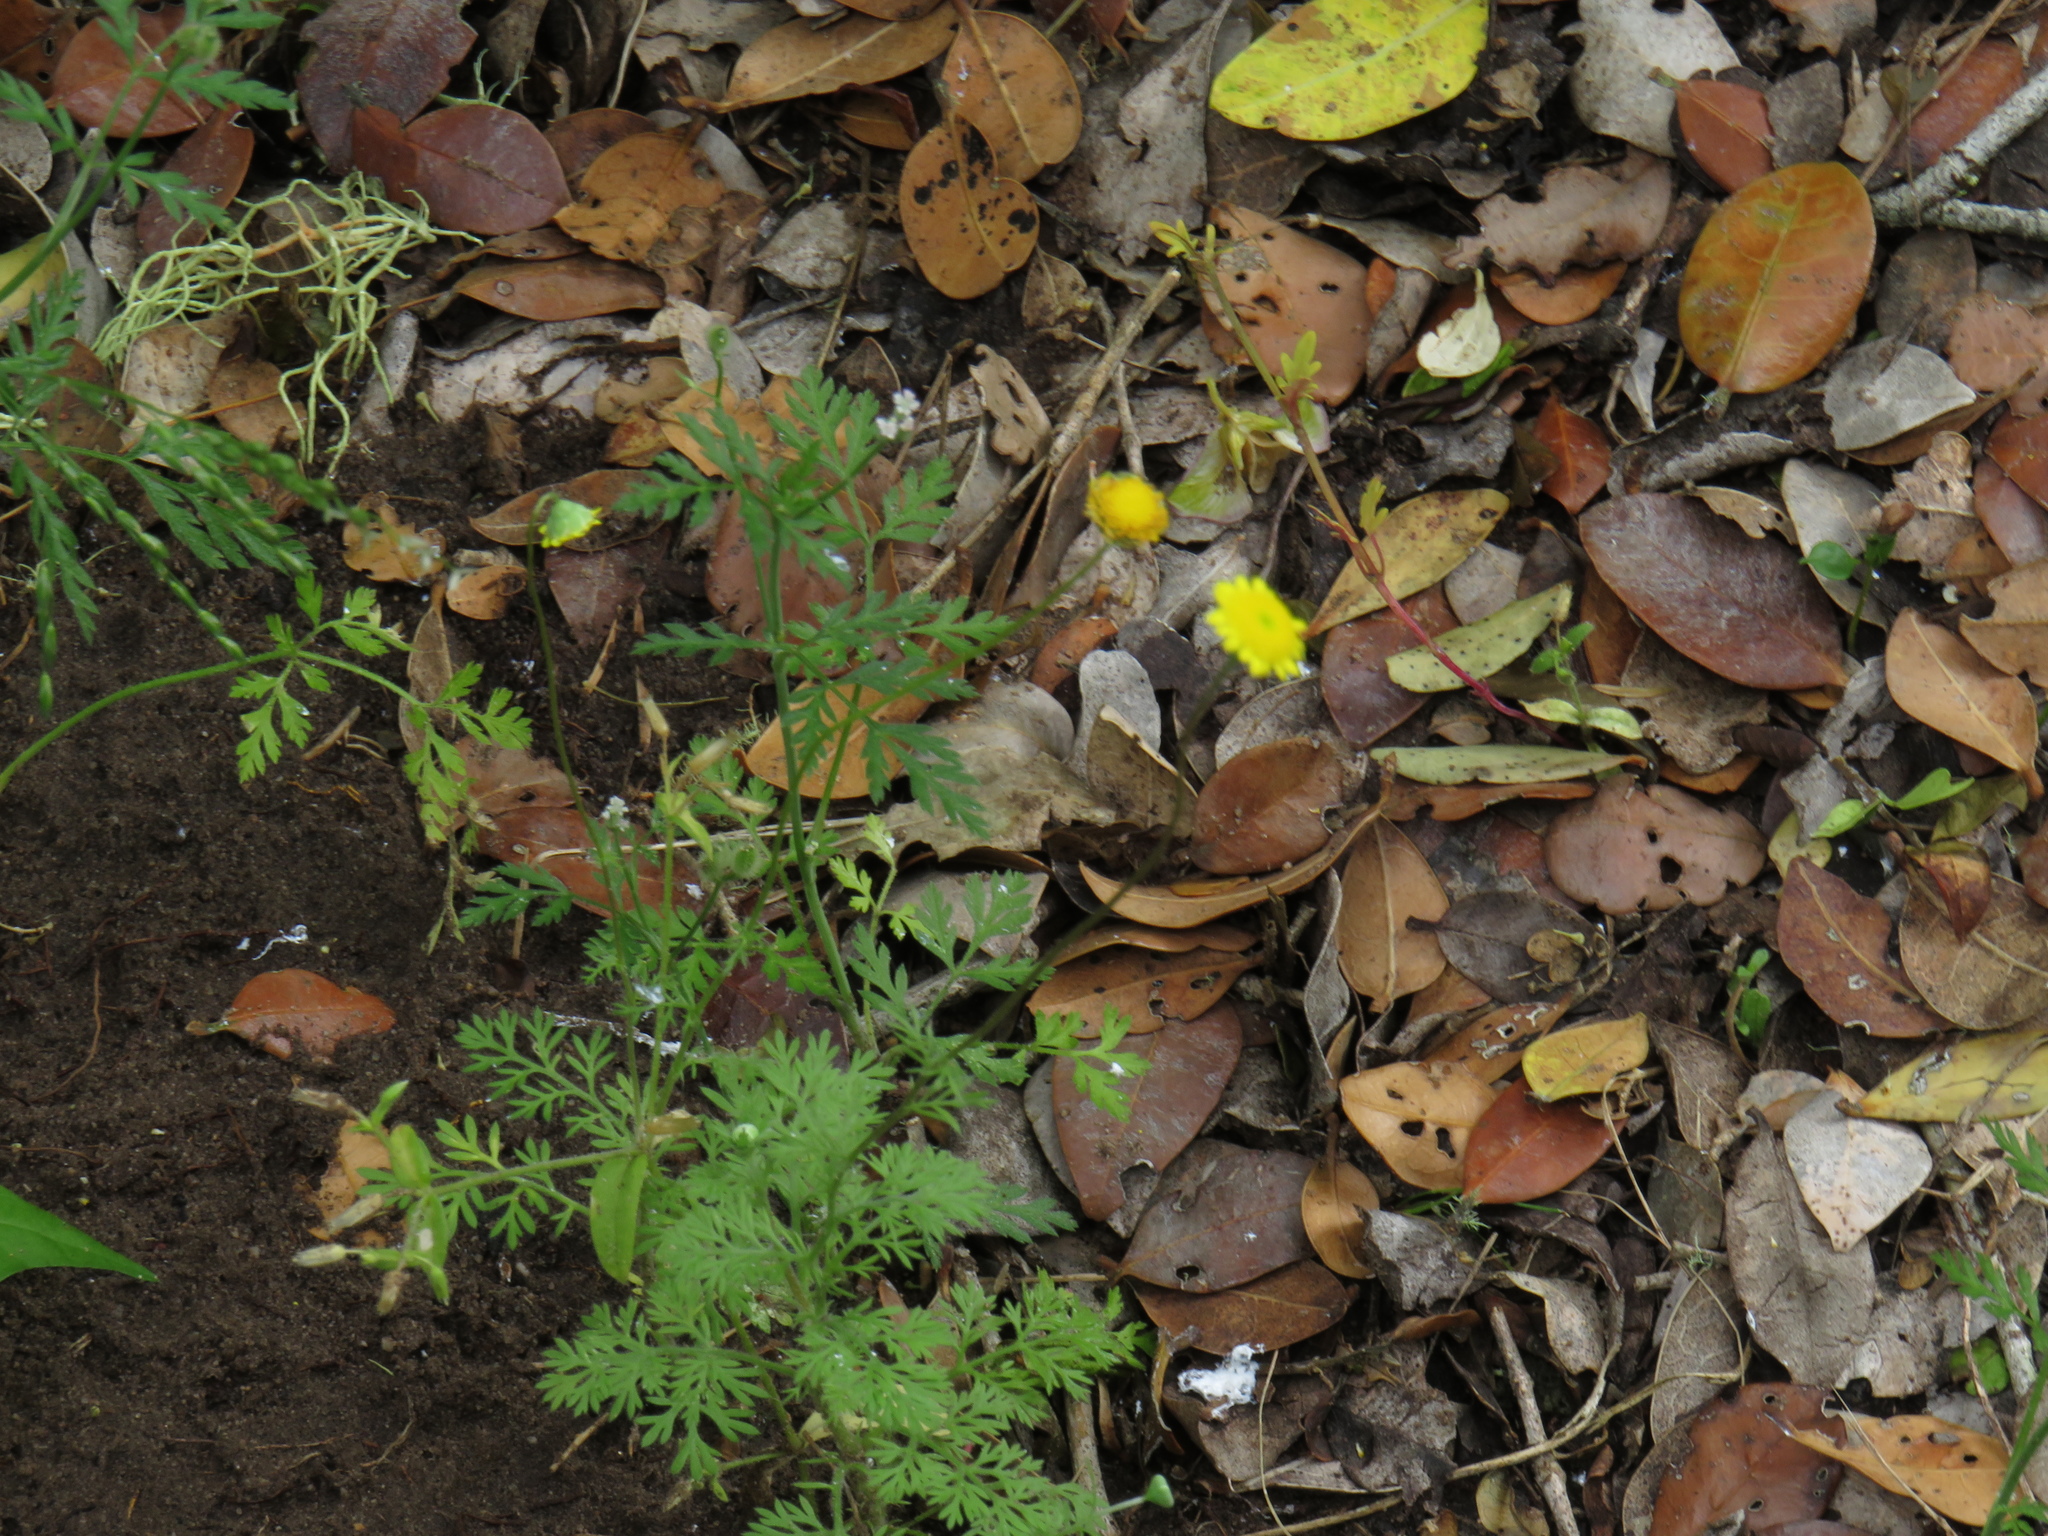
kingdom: Plantae
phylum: Tracheophyta
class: Magnoliopsida
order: Asterales
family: Asteraceae
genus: Cotula
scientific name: Cotula pruinosa
